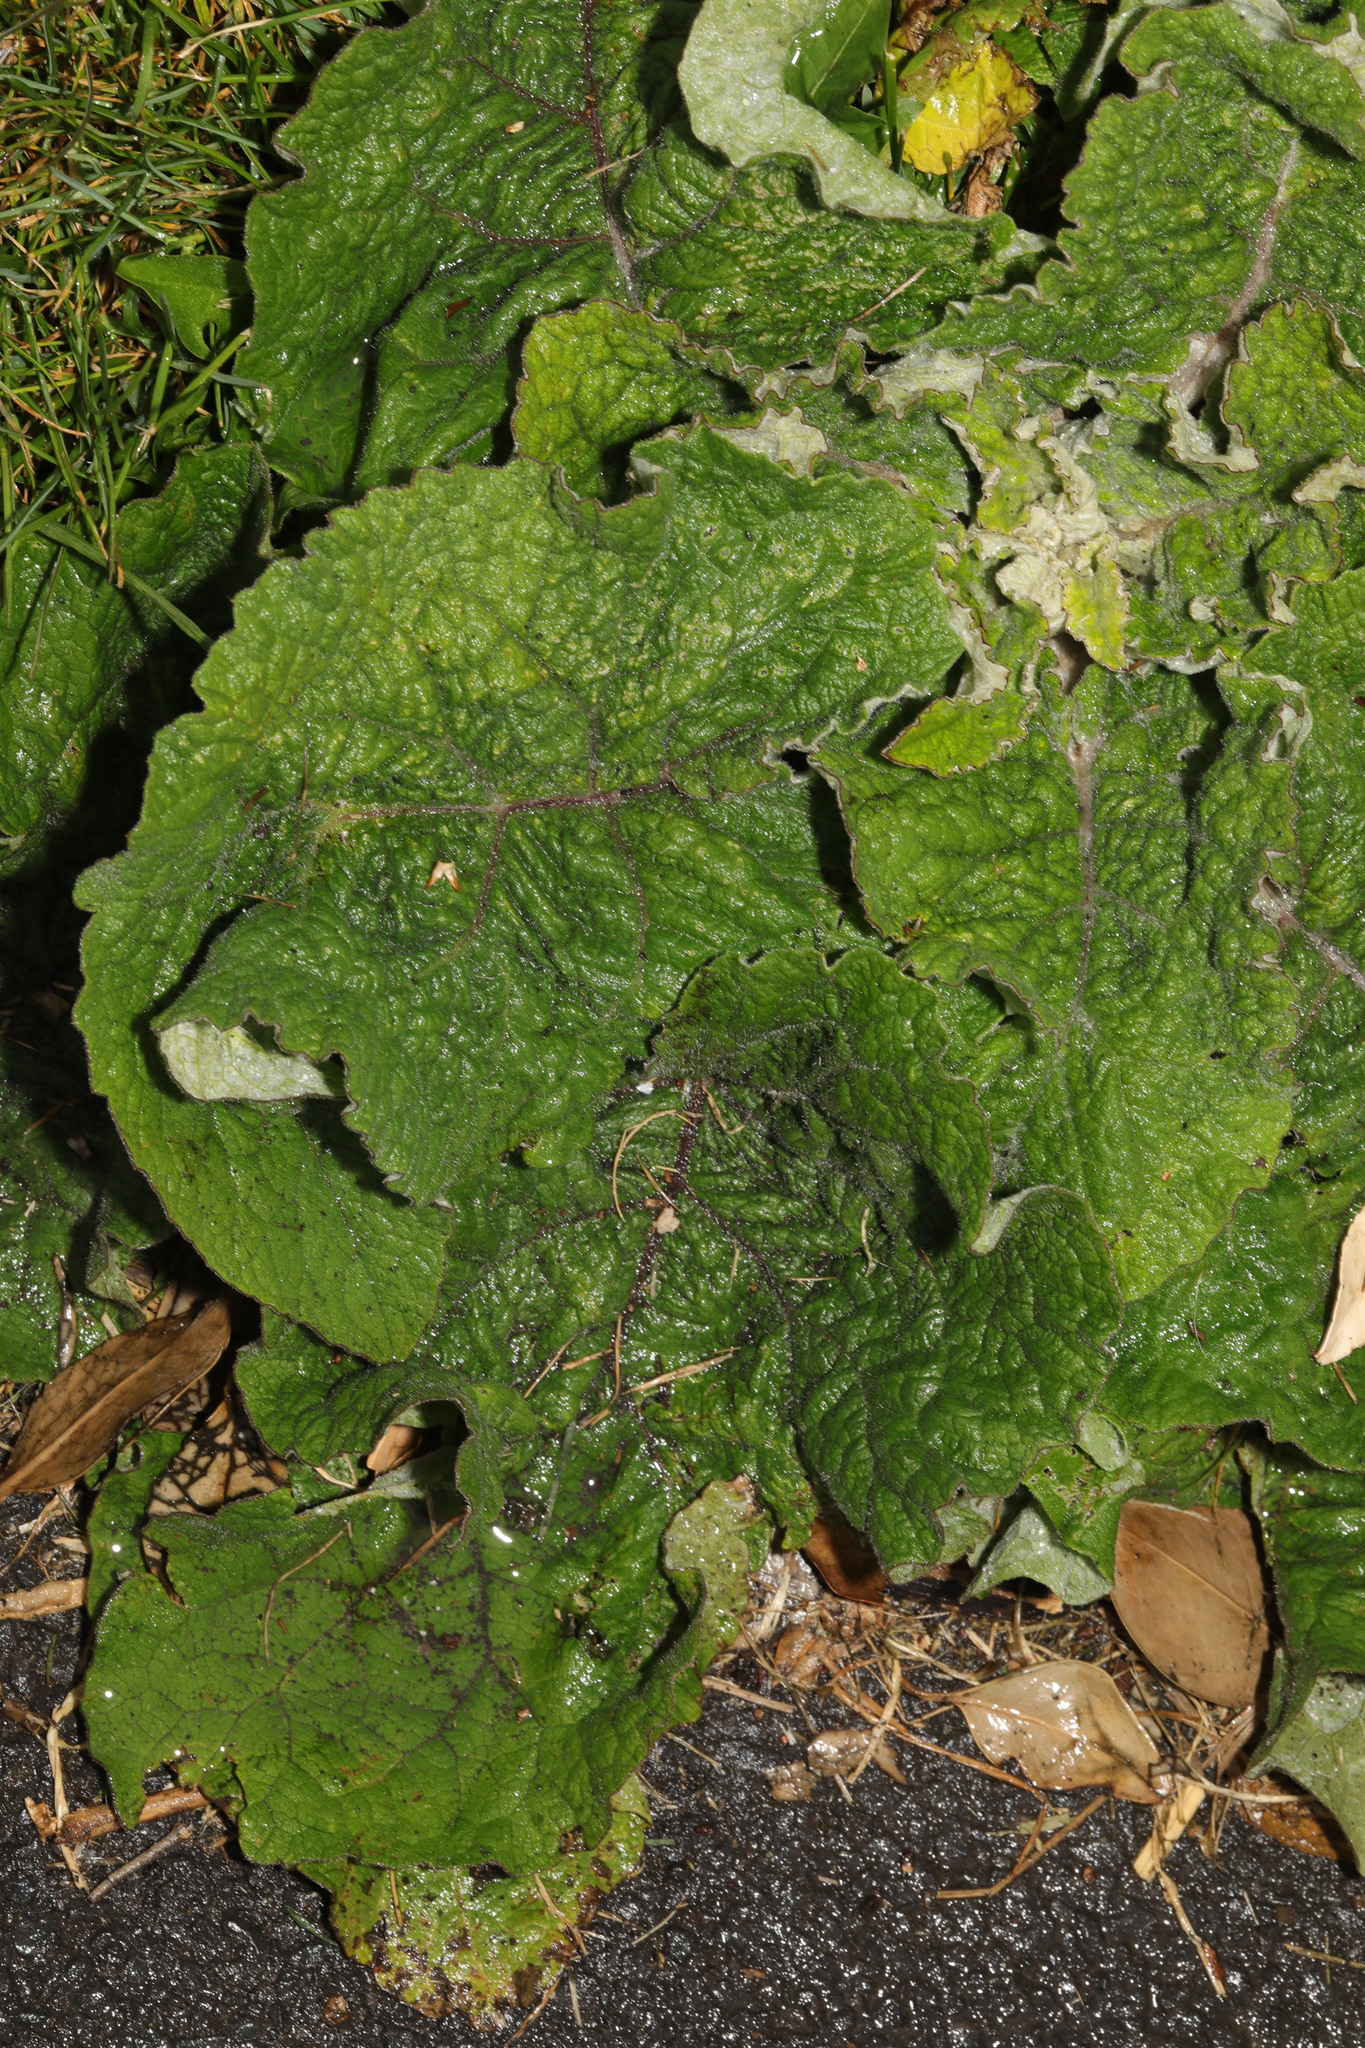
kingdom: Plantae
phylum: Tracheophyta
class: Magnoliopsida
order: Asterales
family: Asteraceae
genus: Arctium
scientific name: Arctium minus
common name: Lesser burdock
